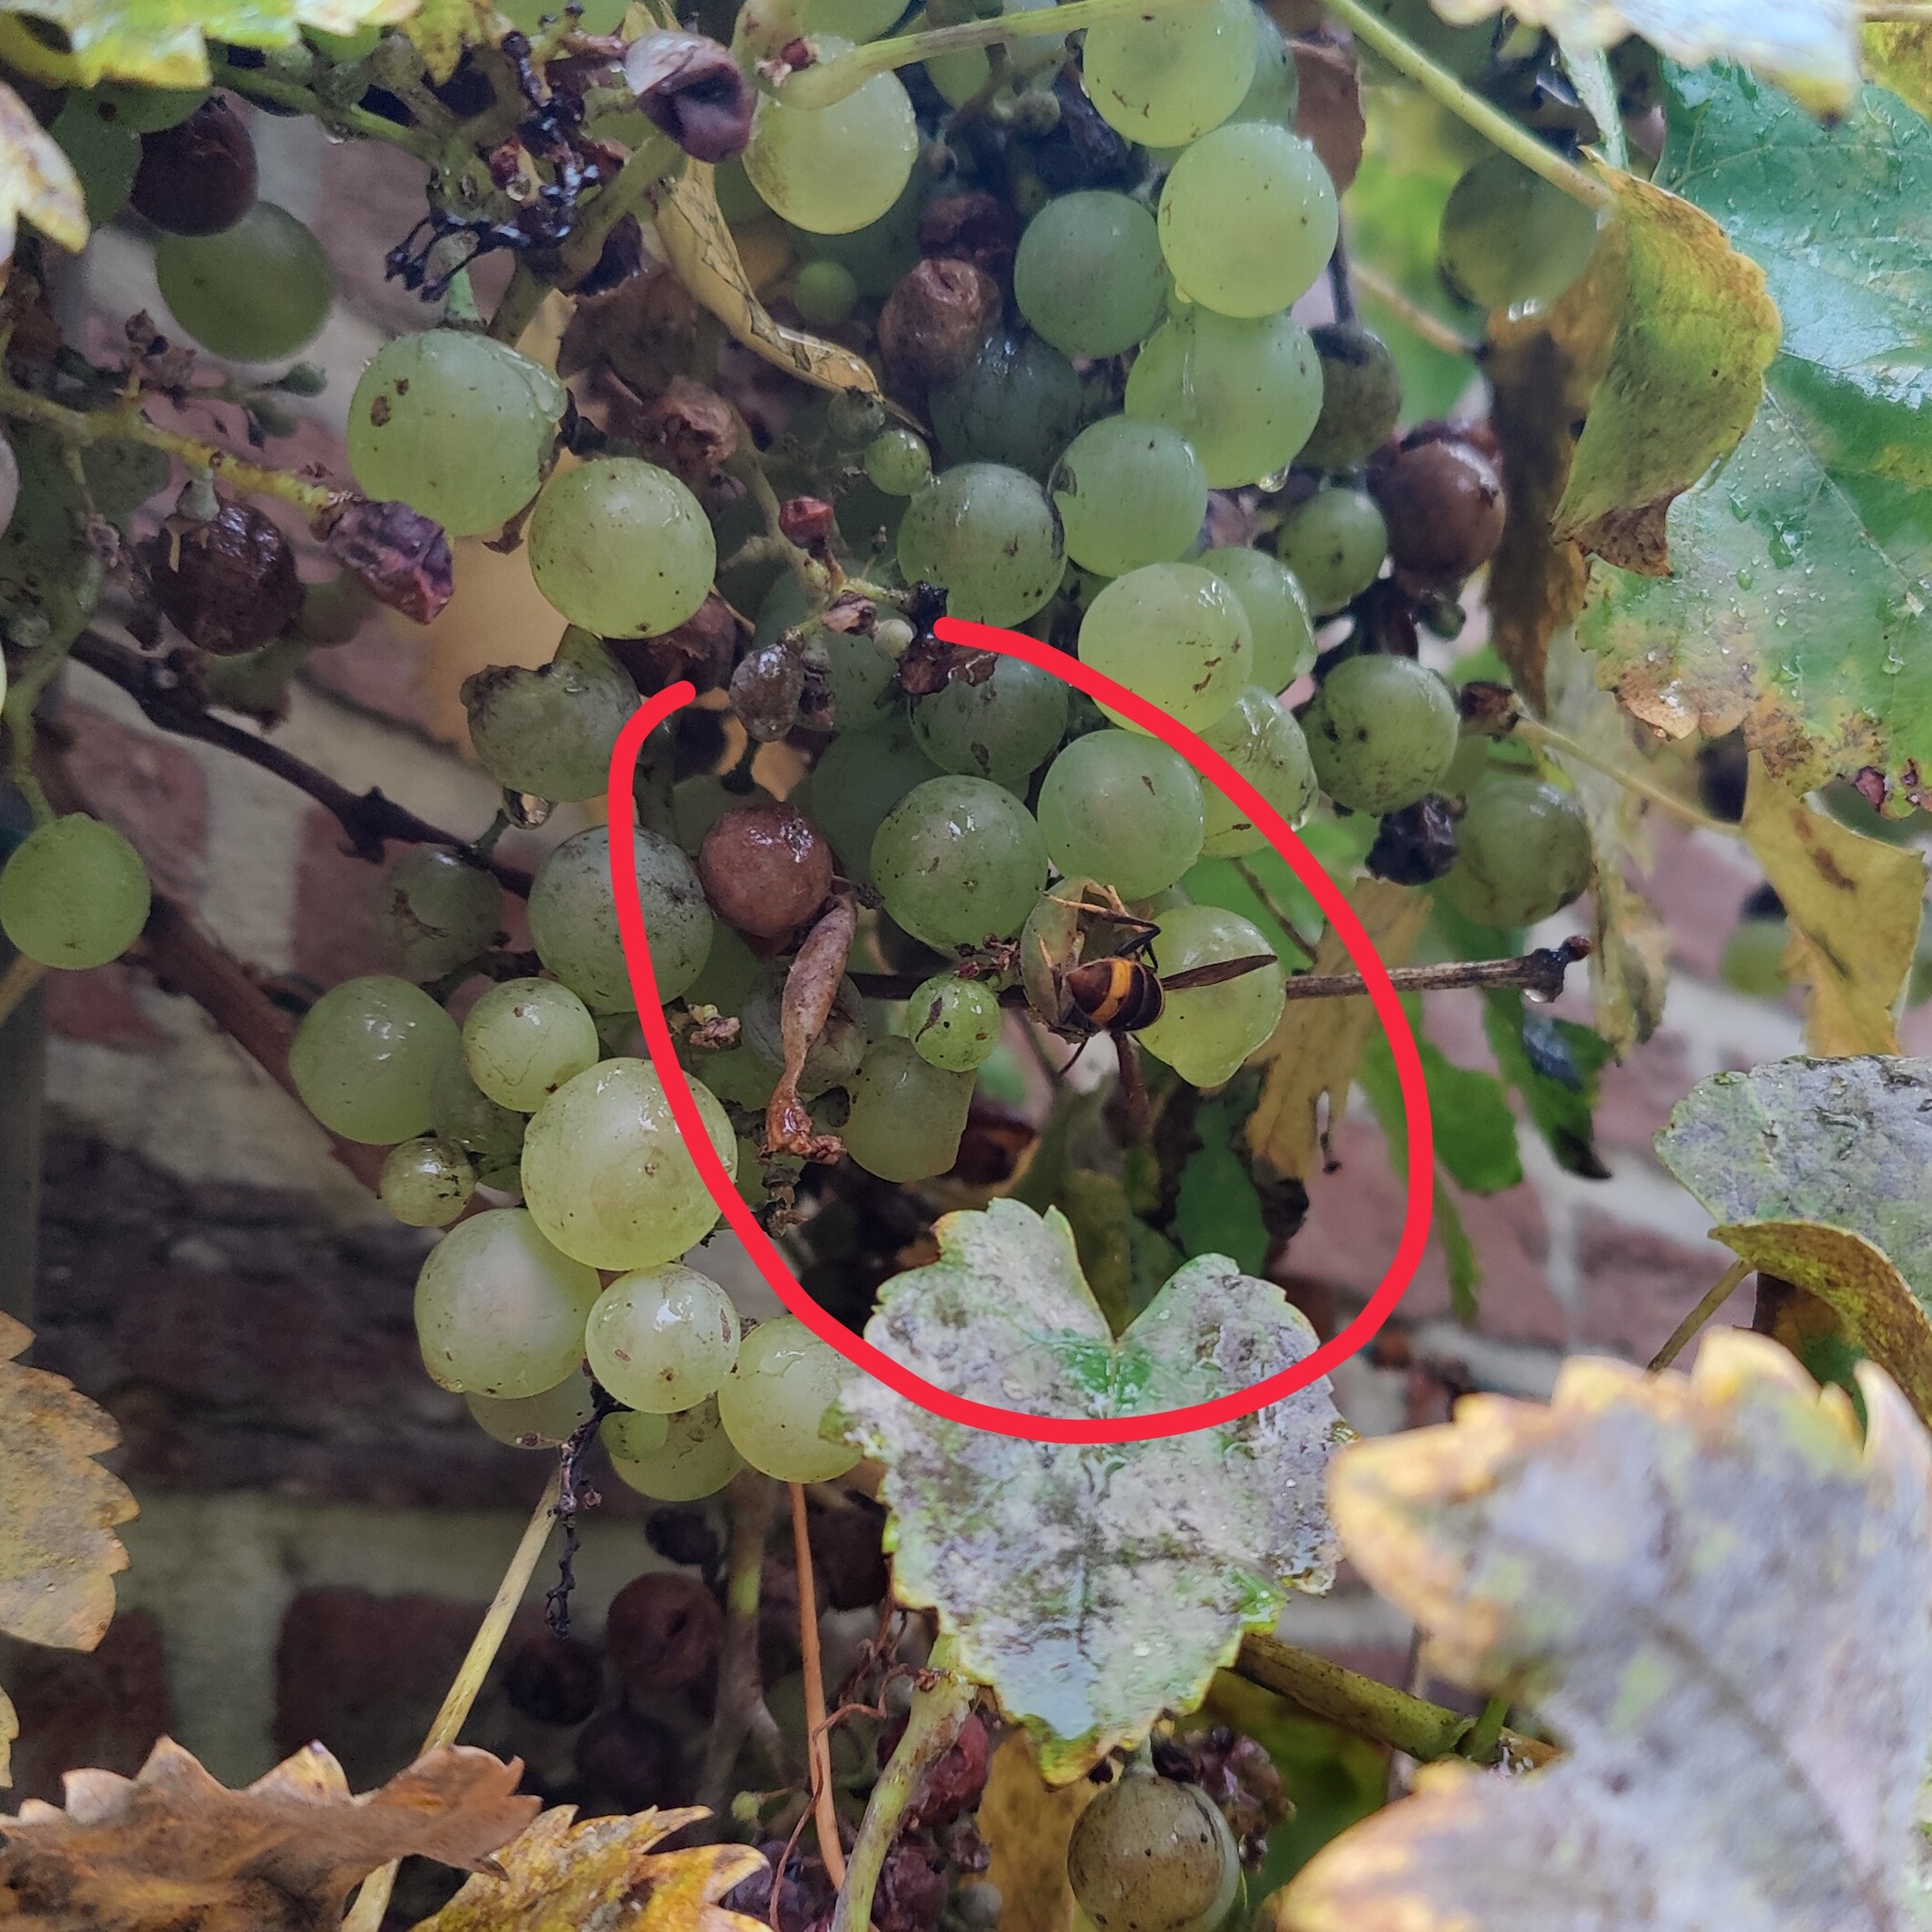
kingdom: Animalia
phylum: Arthropoda
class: Insecta
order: Hymenoptera
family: Vespidae
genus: Vespa
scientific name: Vespa velutina
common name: Asian hornet
